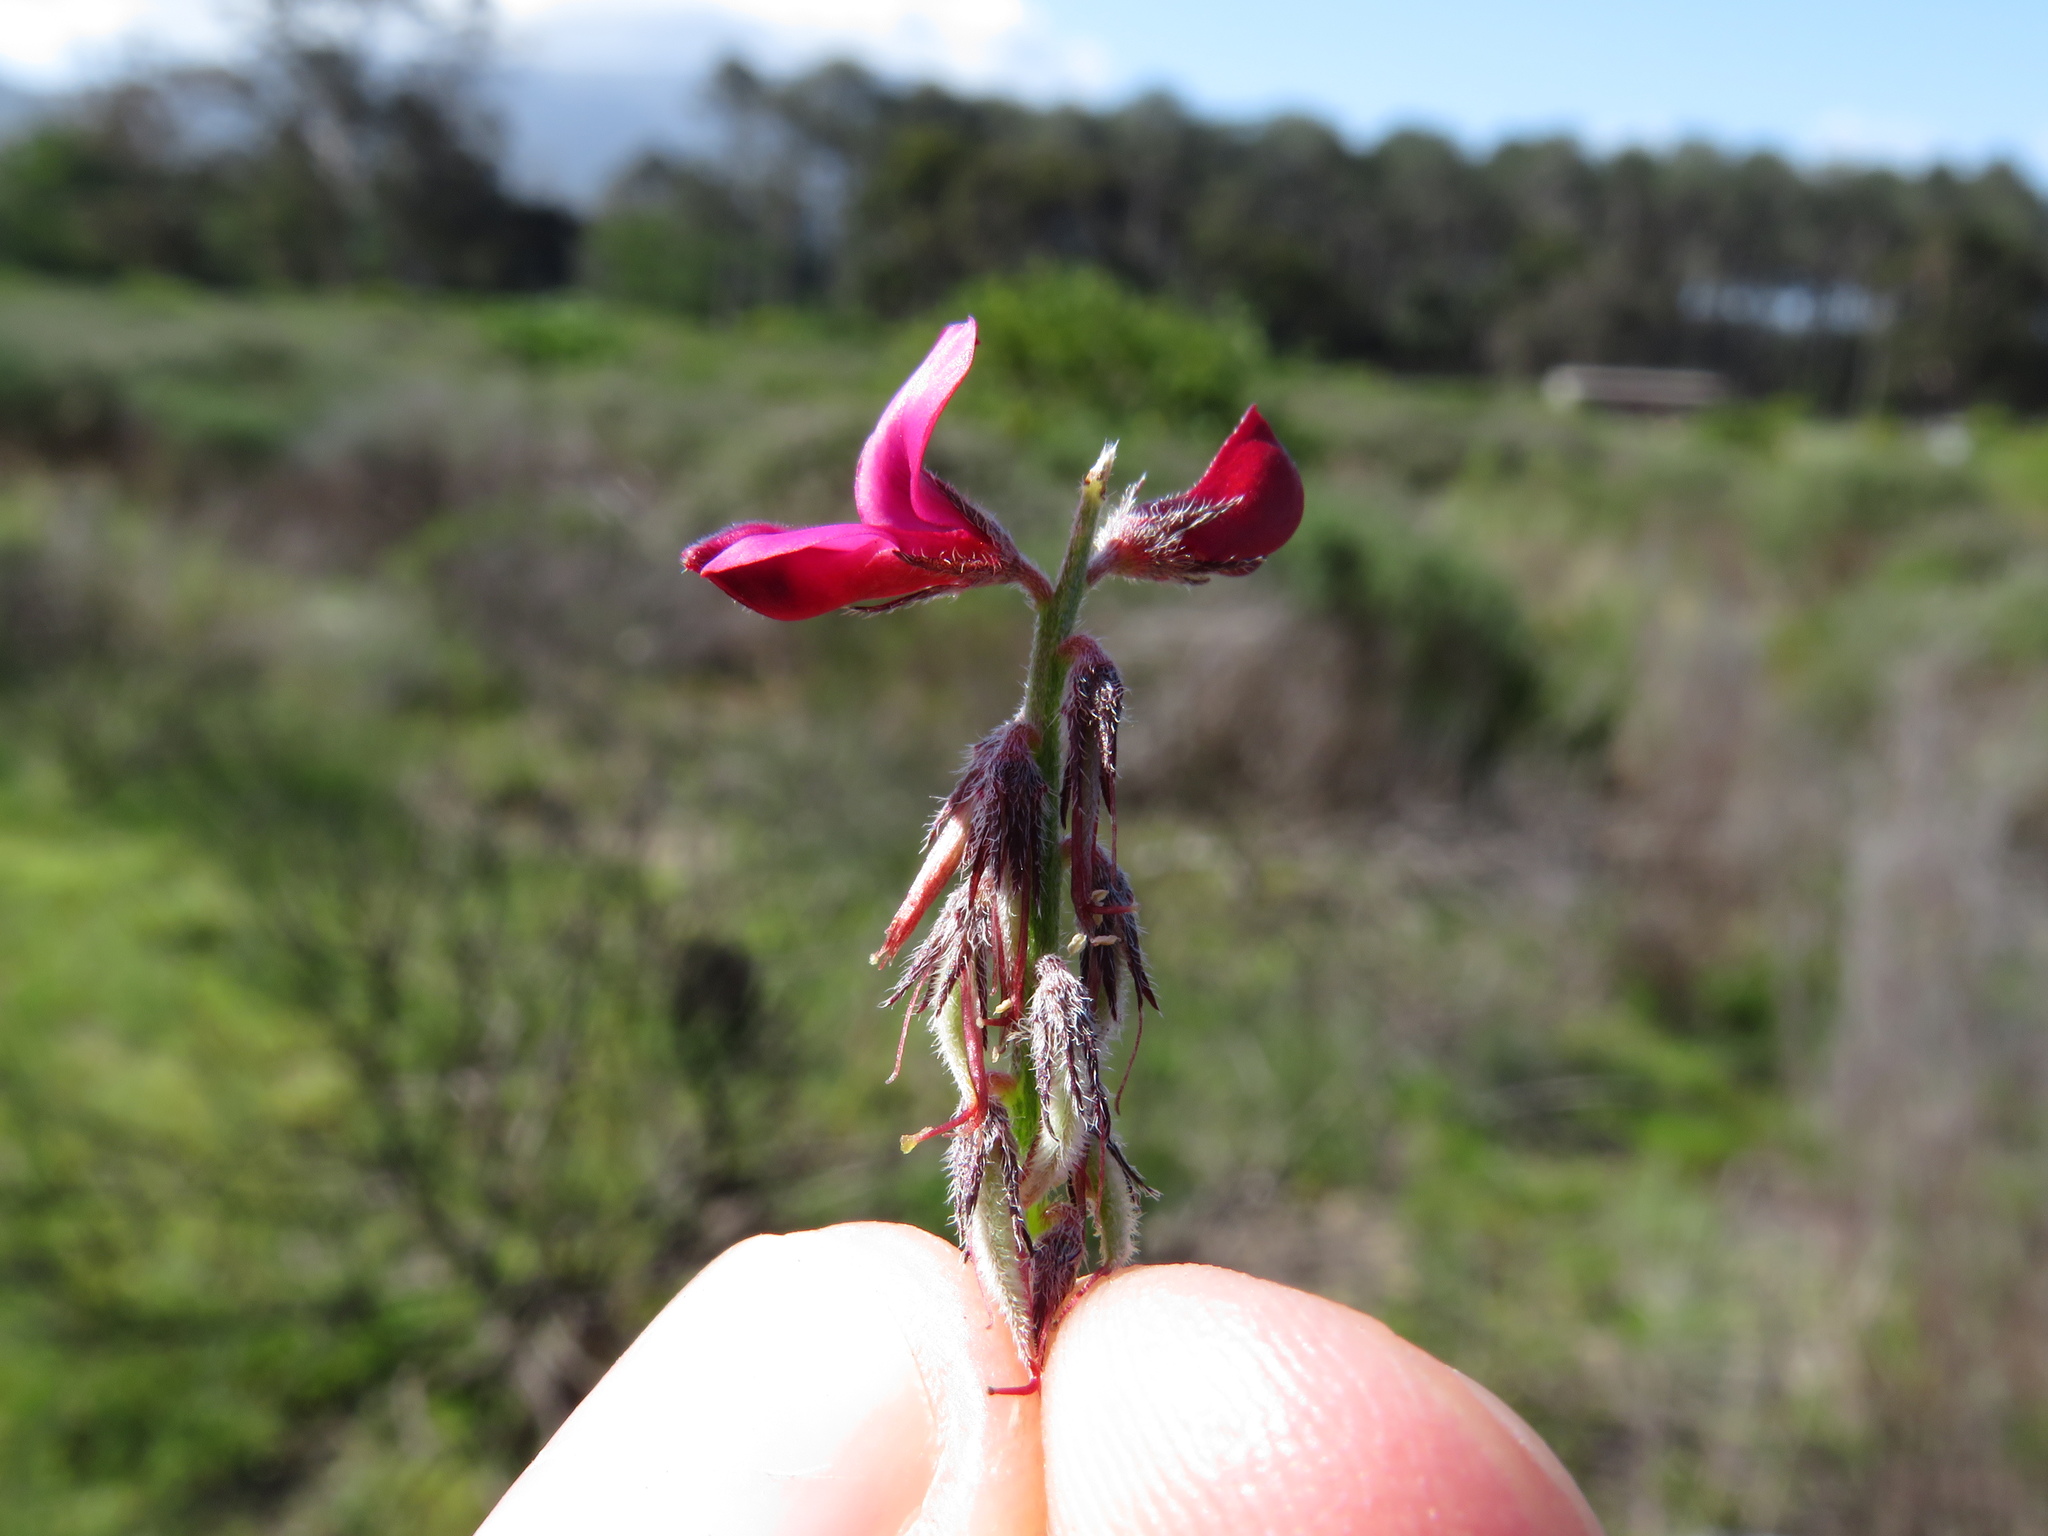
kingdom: Plantae
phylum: Tracheophyta
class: Magnoliopsida
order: Fabales
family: Fabaceae
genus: Indigofera
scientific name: Indigofera incana
